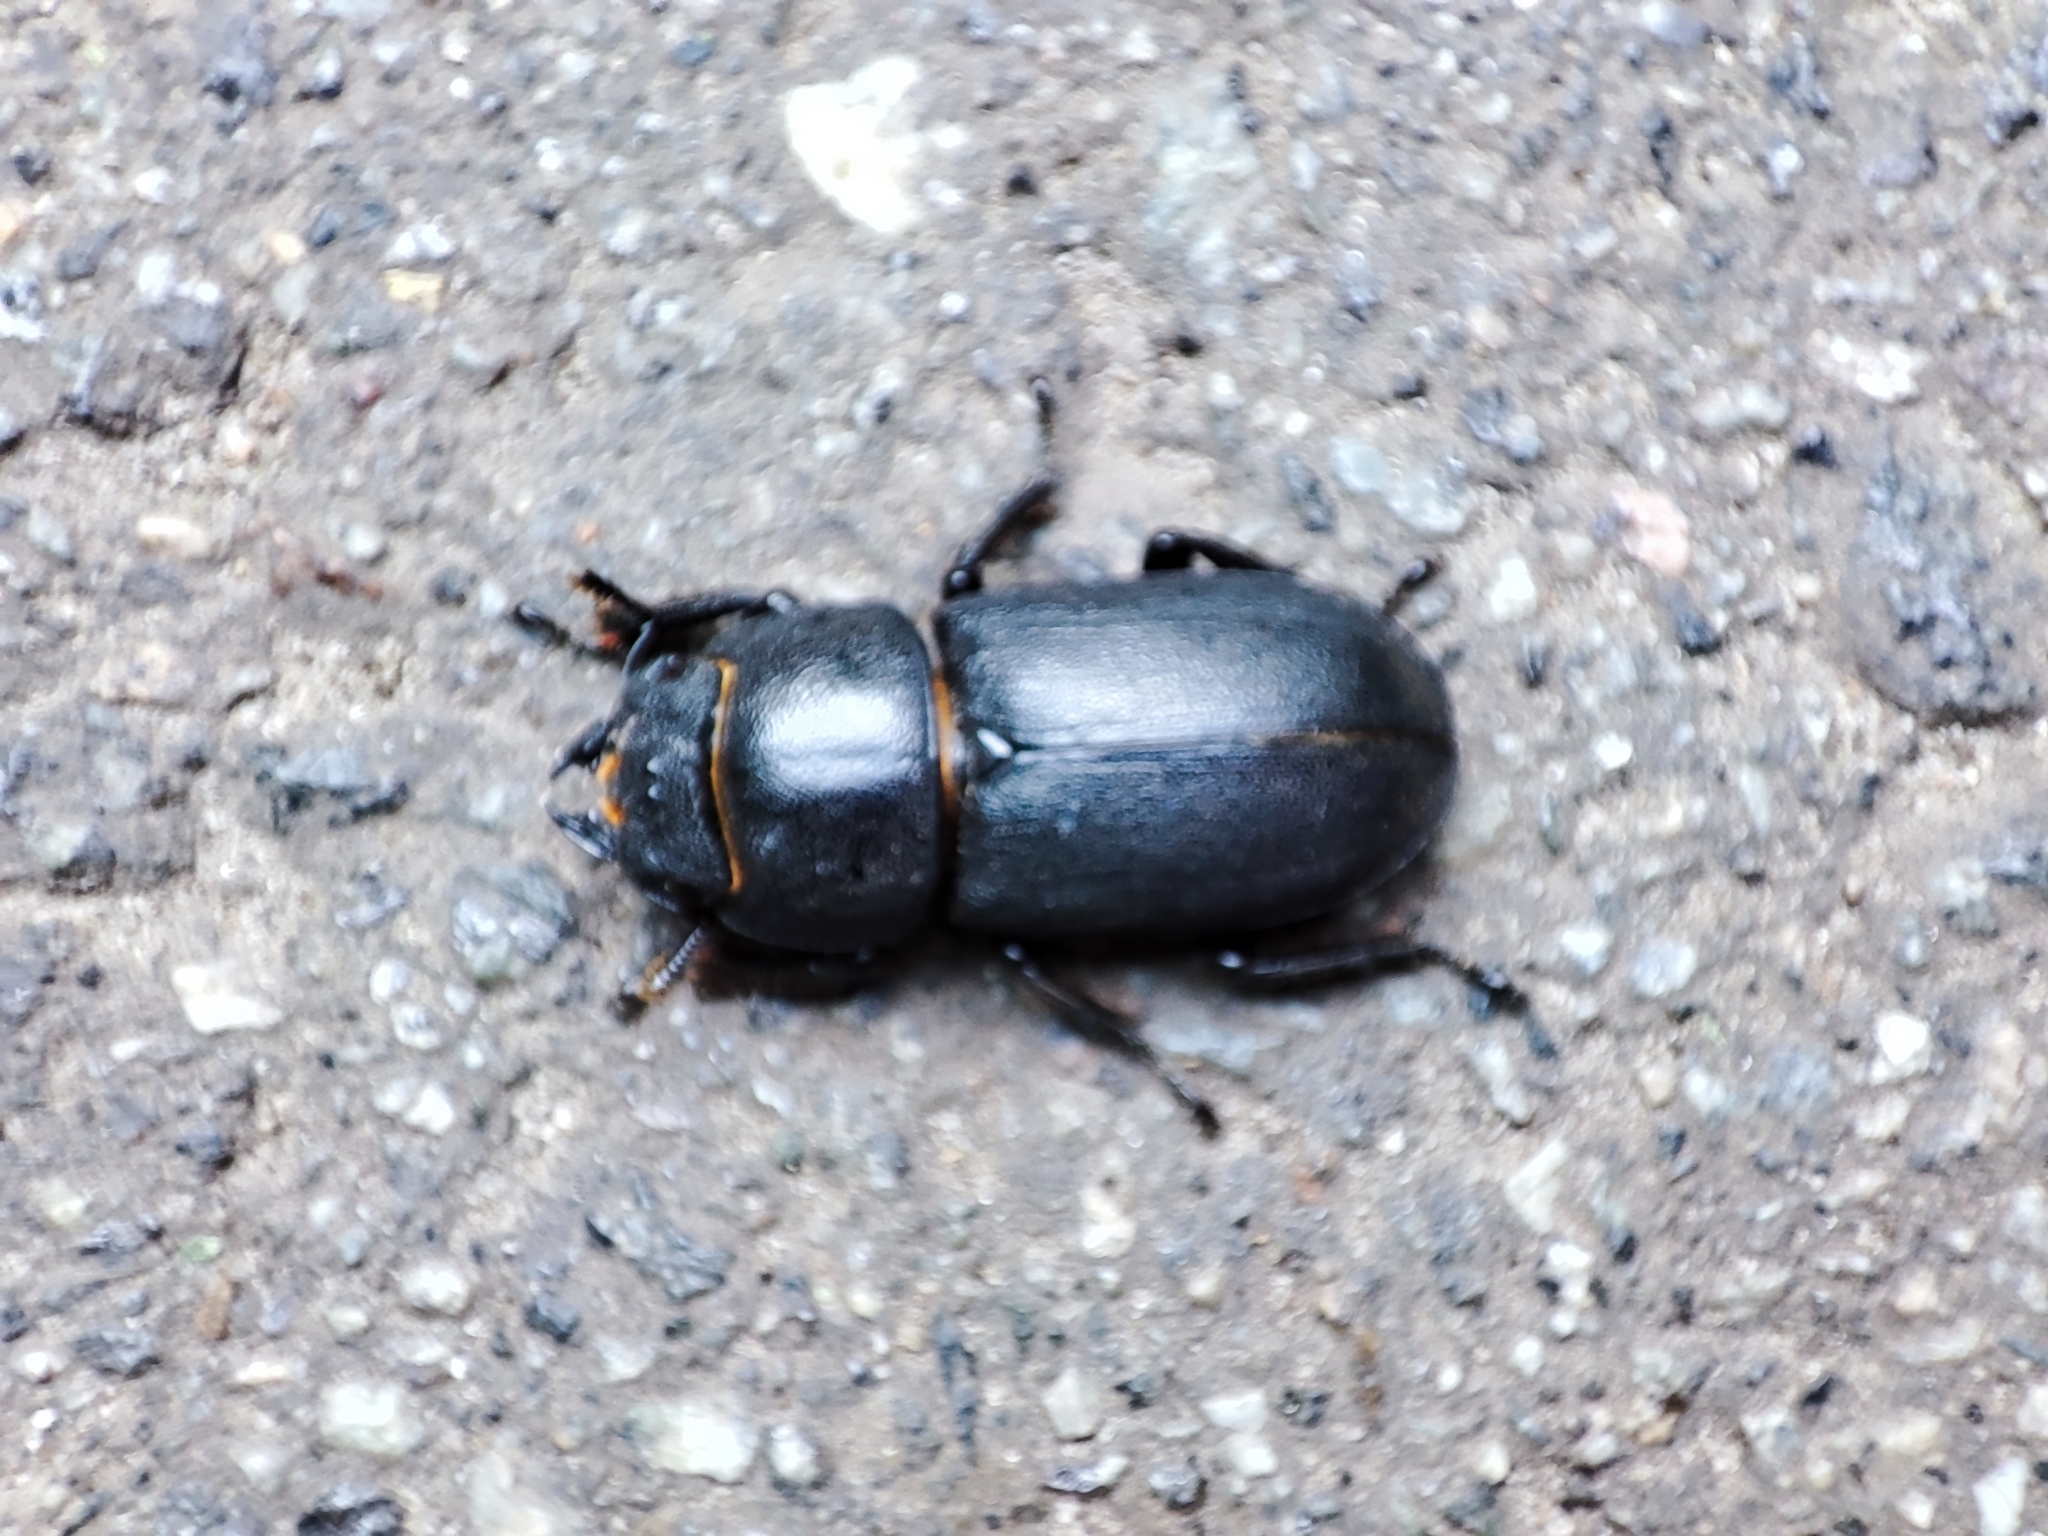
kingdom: Animalia
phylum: Arthropoda
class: Insecta
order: Coleoptera
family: Lucanidae
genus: Dorcus
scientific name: Dorcus parallelipipedus
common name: Lesser stag beetle
